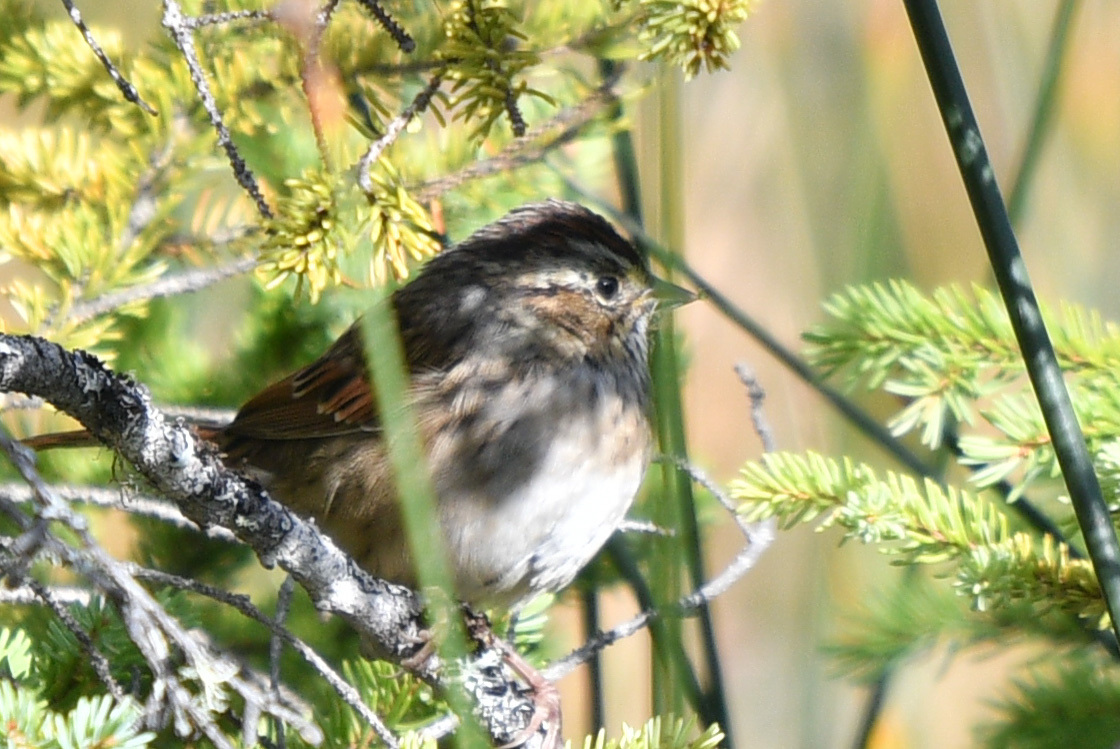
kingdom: Animalia
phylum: Chordata
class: Aves
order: Passeriformes
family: Passerellidae
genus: Zonotrichia
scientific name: Zonotrichia albicollis
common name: White-throated sparrow
